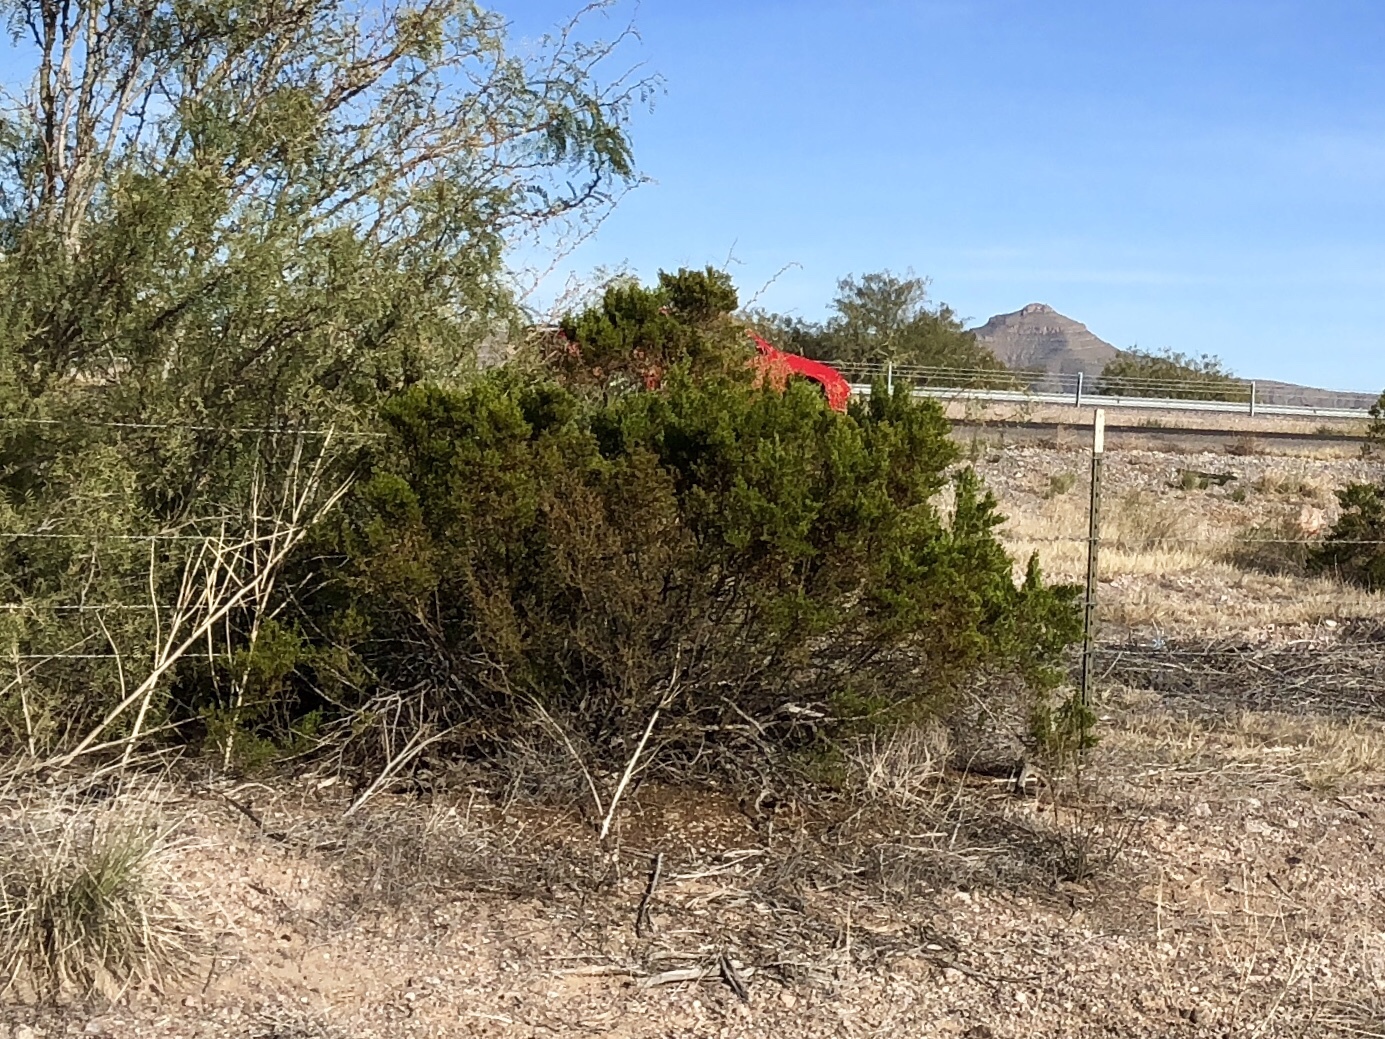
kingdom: Plantae
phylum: Tracheophyta
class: Magnoliopsida
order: Zygophyllales
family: Zygophyllaceae
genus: Larrea
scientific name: Larrea tridentata
